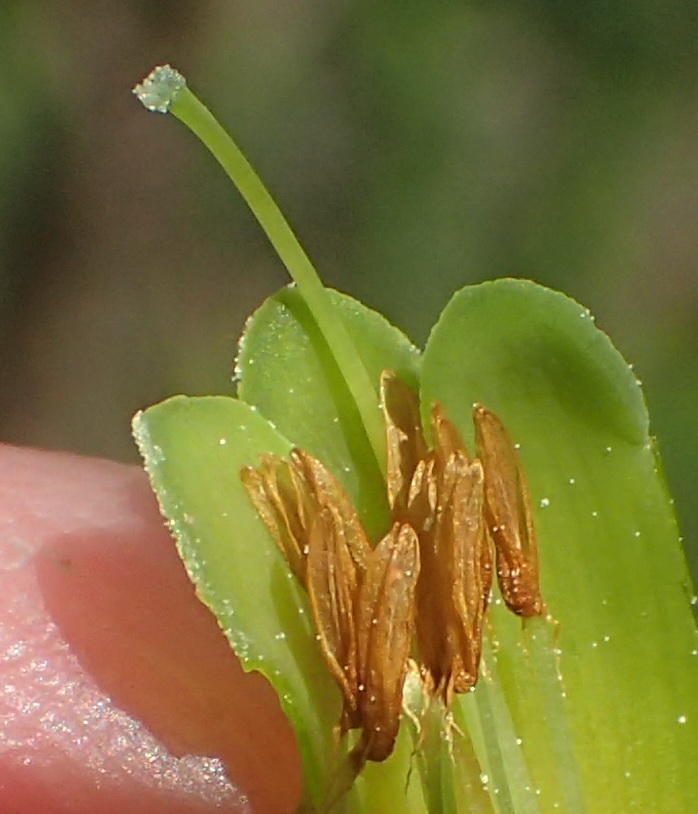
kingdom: Plantae
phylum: Tracheophyta
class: Magnoliopsida
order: Ericales
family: Ericaceae
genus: Erica
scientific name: Erica unicolor
